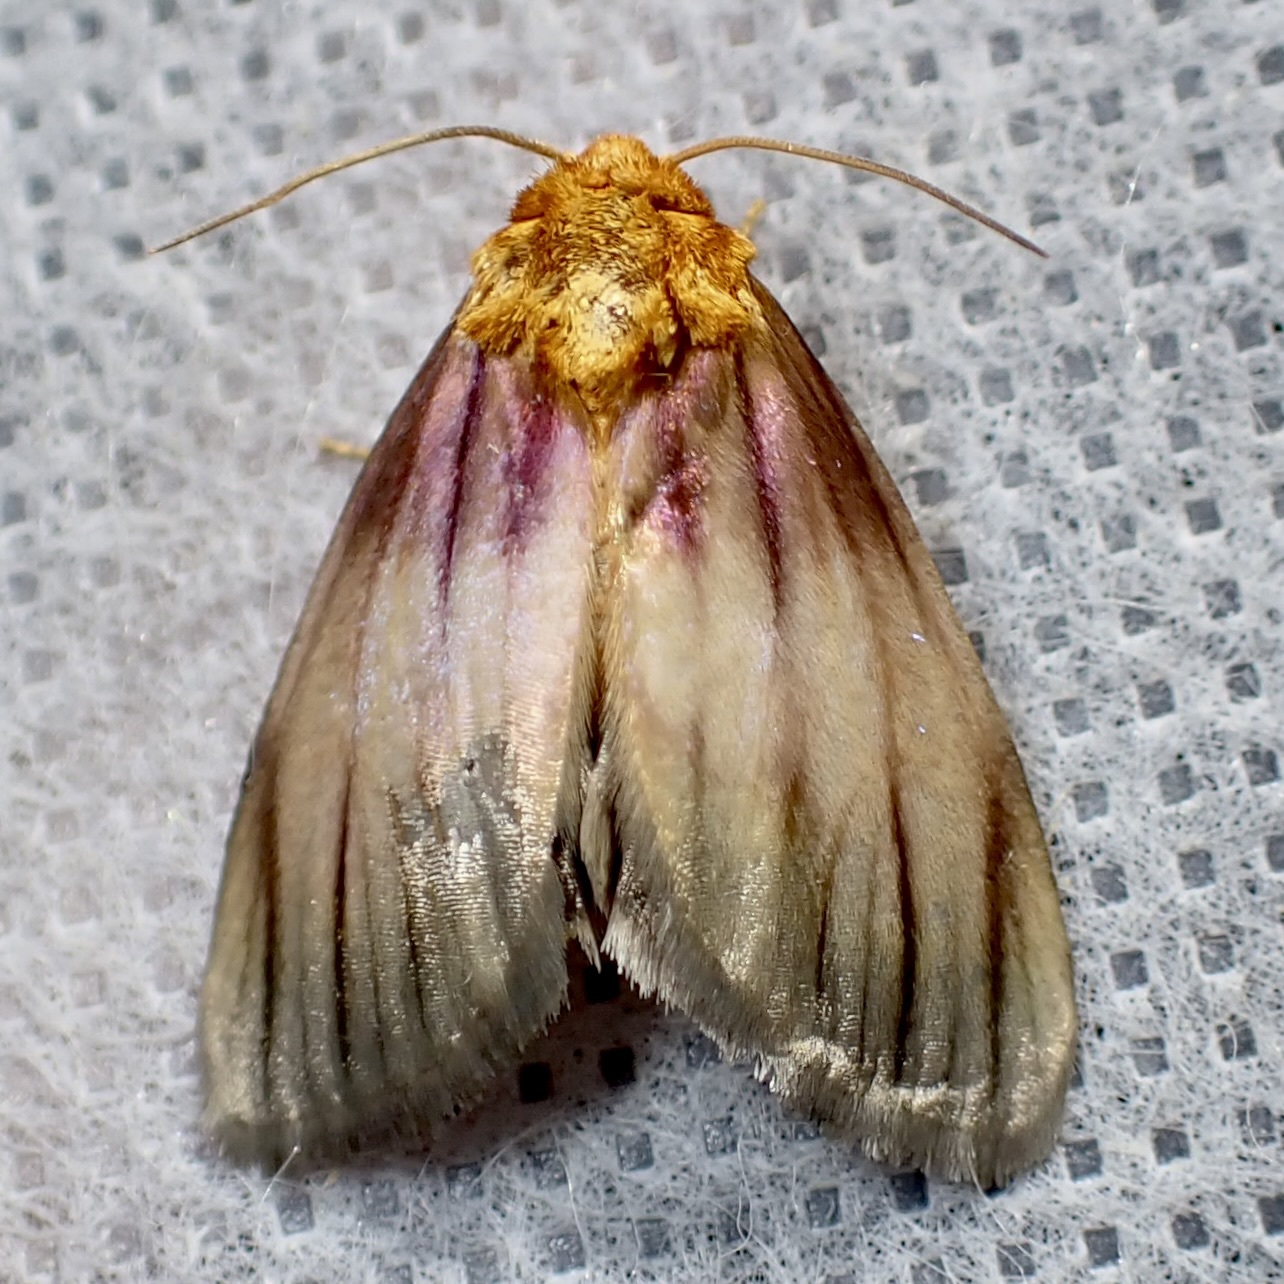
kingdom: Animalia
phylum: Arthropoda
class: Insecta
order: Lepidoptera
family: Noctuidae
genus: Antaplaga
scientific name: Antaplaga plesioglauca
